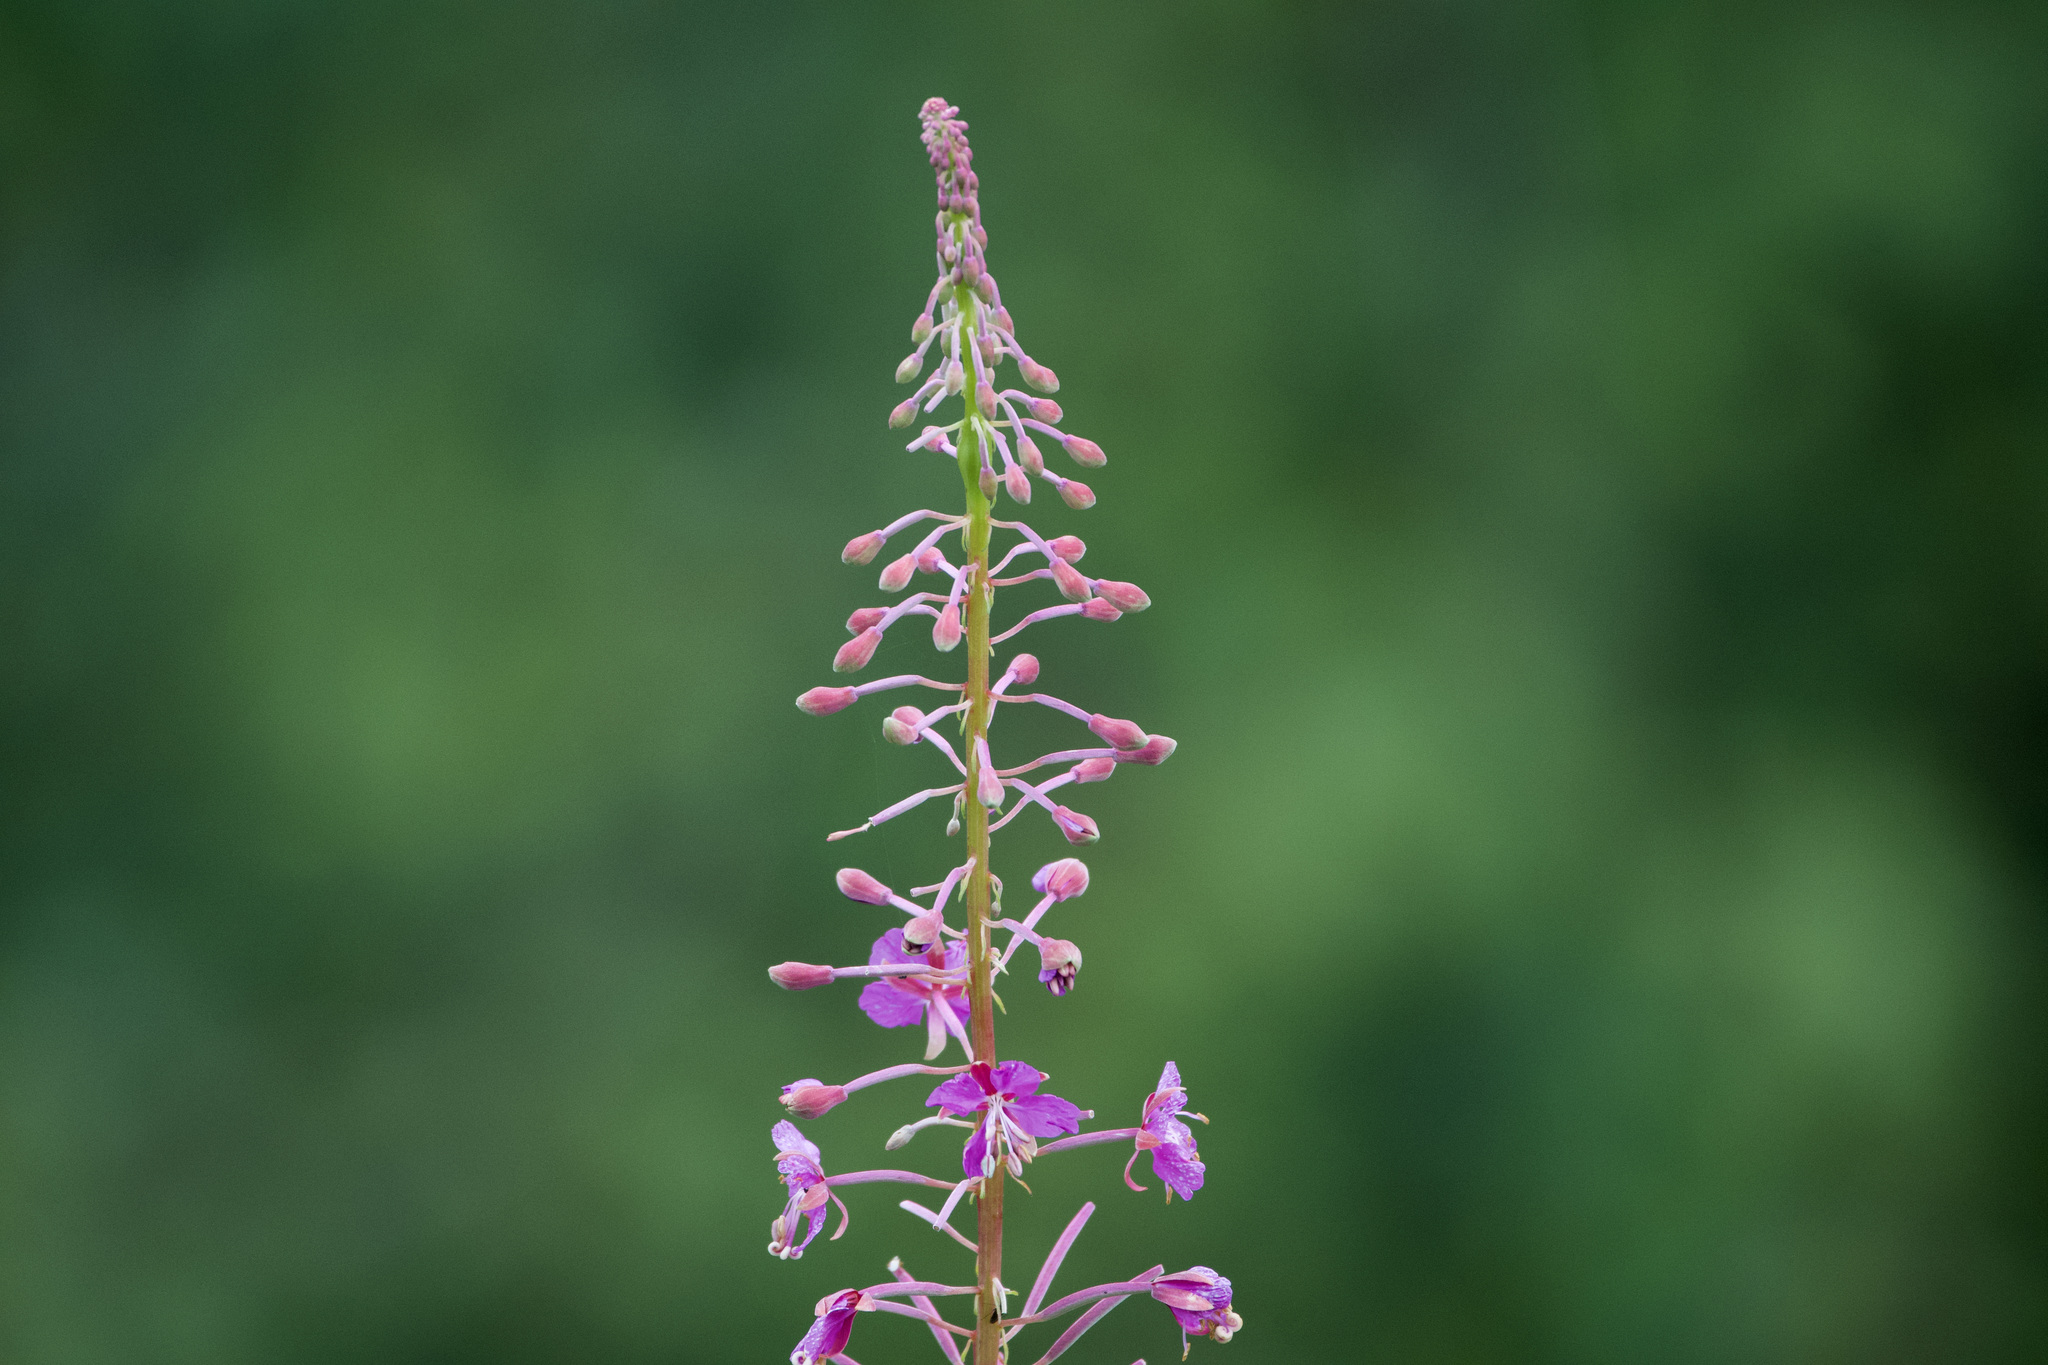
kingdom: Plantae
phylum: Tracheophyta
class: Magnoliopsida
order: Myrtales
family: Onagraceae
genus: Chamaenerion
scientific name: Chamaenerion angustifolium
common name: Fireweed
